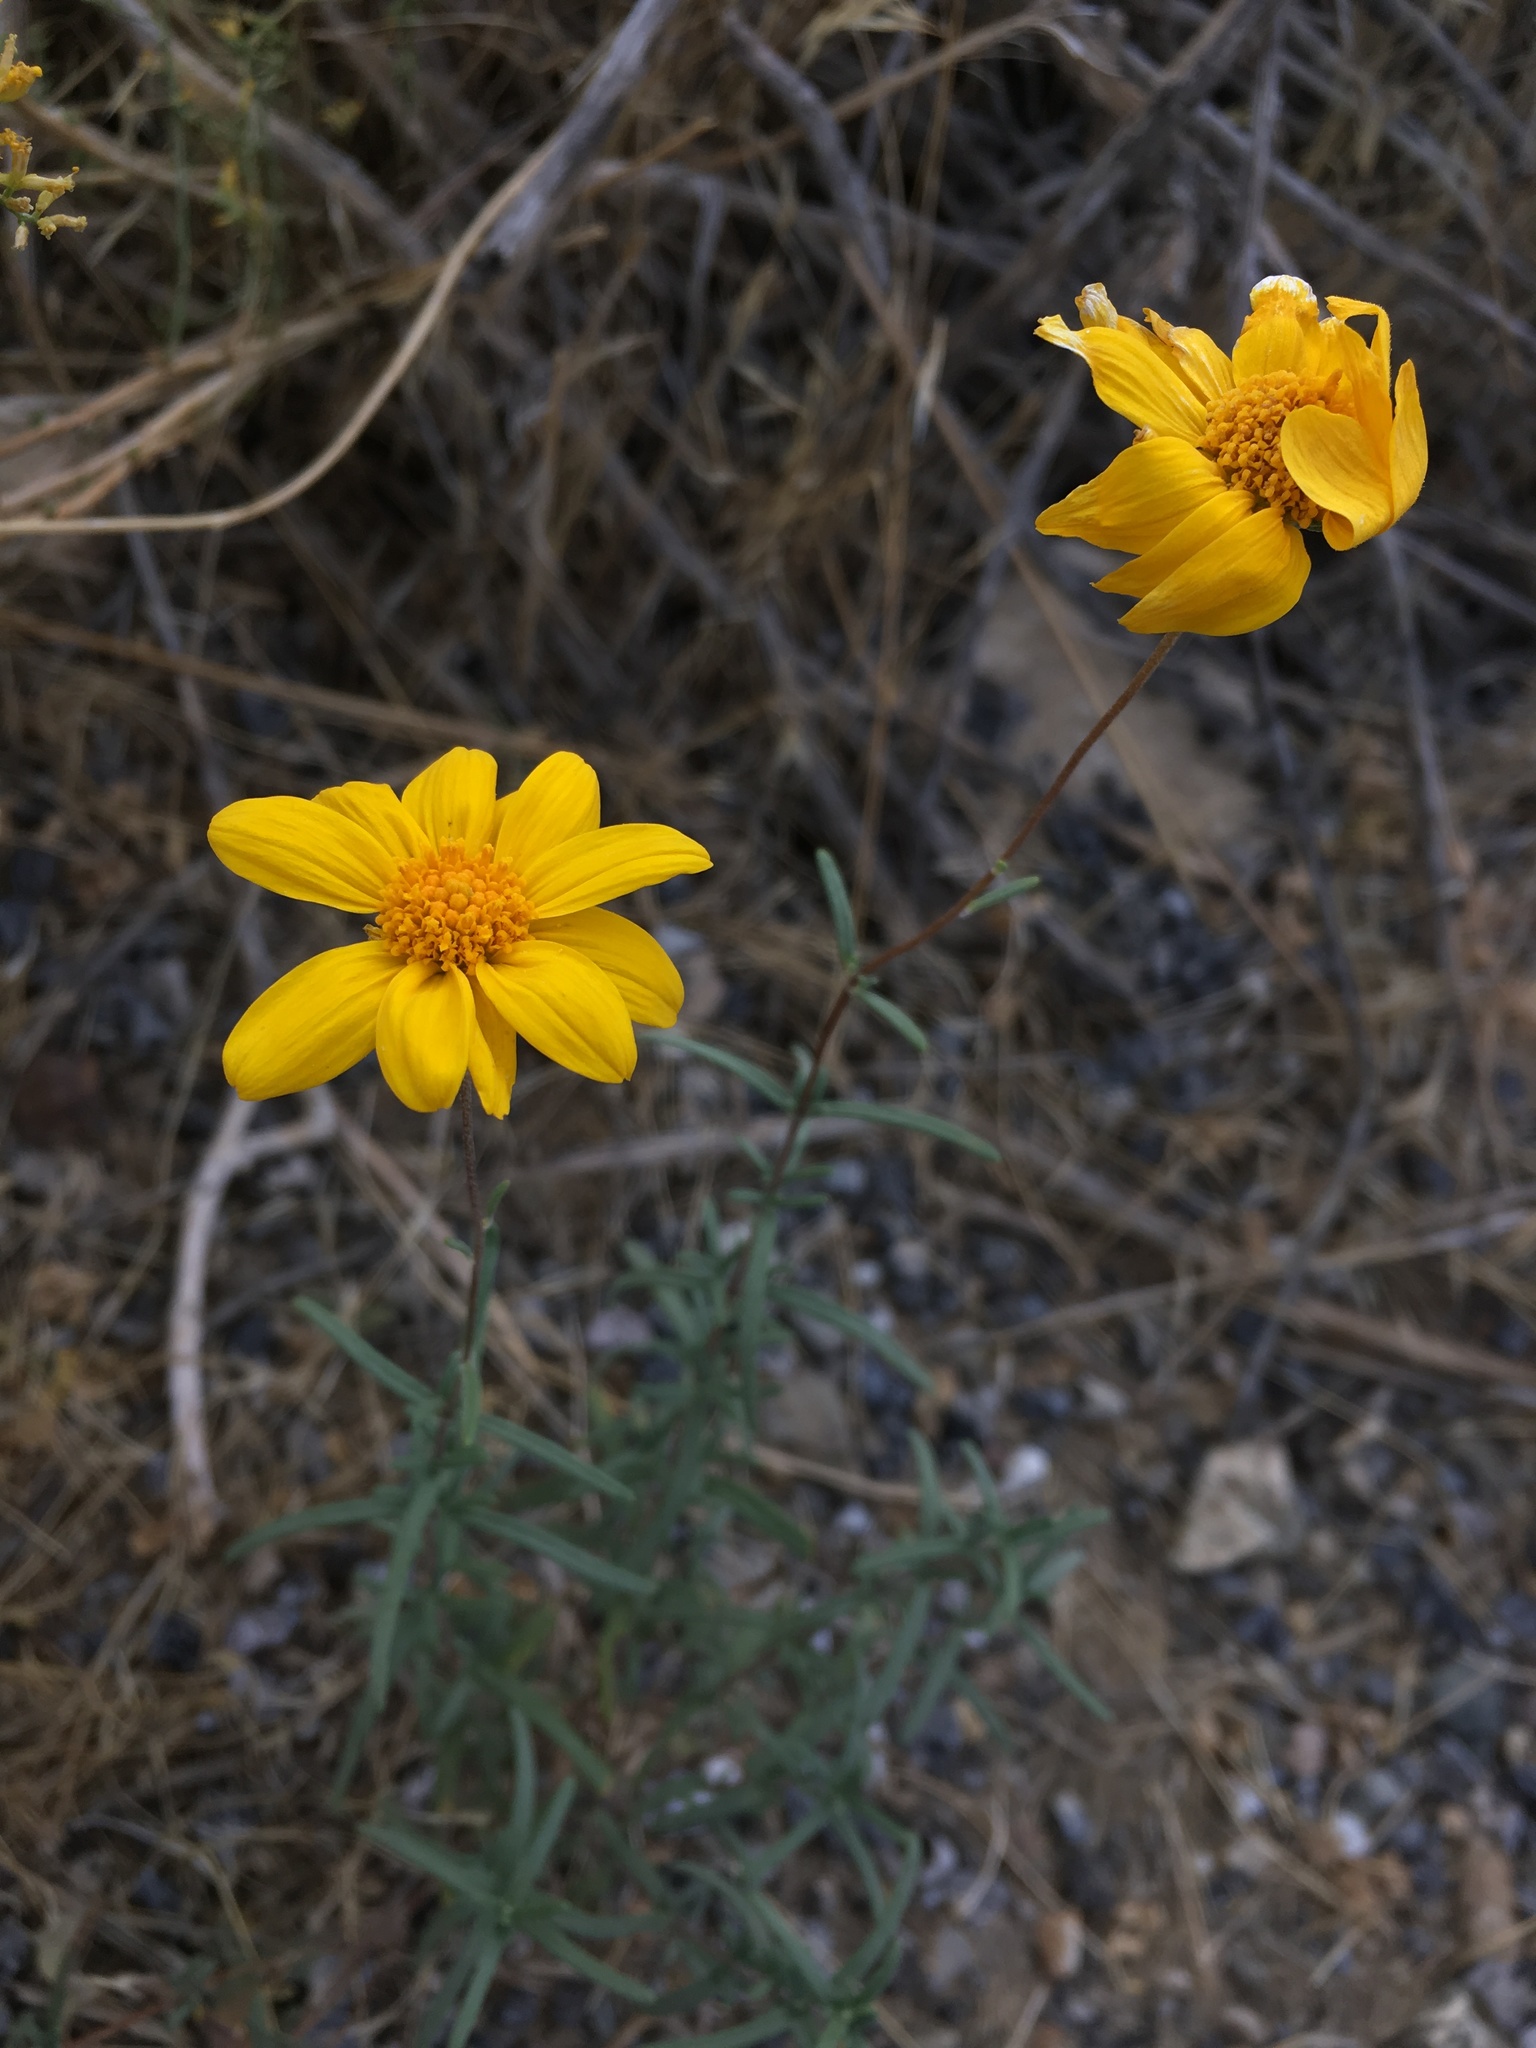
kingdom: Plantae
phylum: Tracheophyta
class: Magnoliopsida
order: Asterales
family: Asteraceae
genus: Heliomeris
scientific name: Heliomeris multiflora
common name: Showy goldeneye
